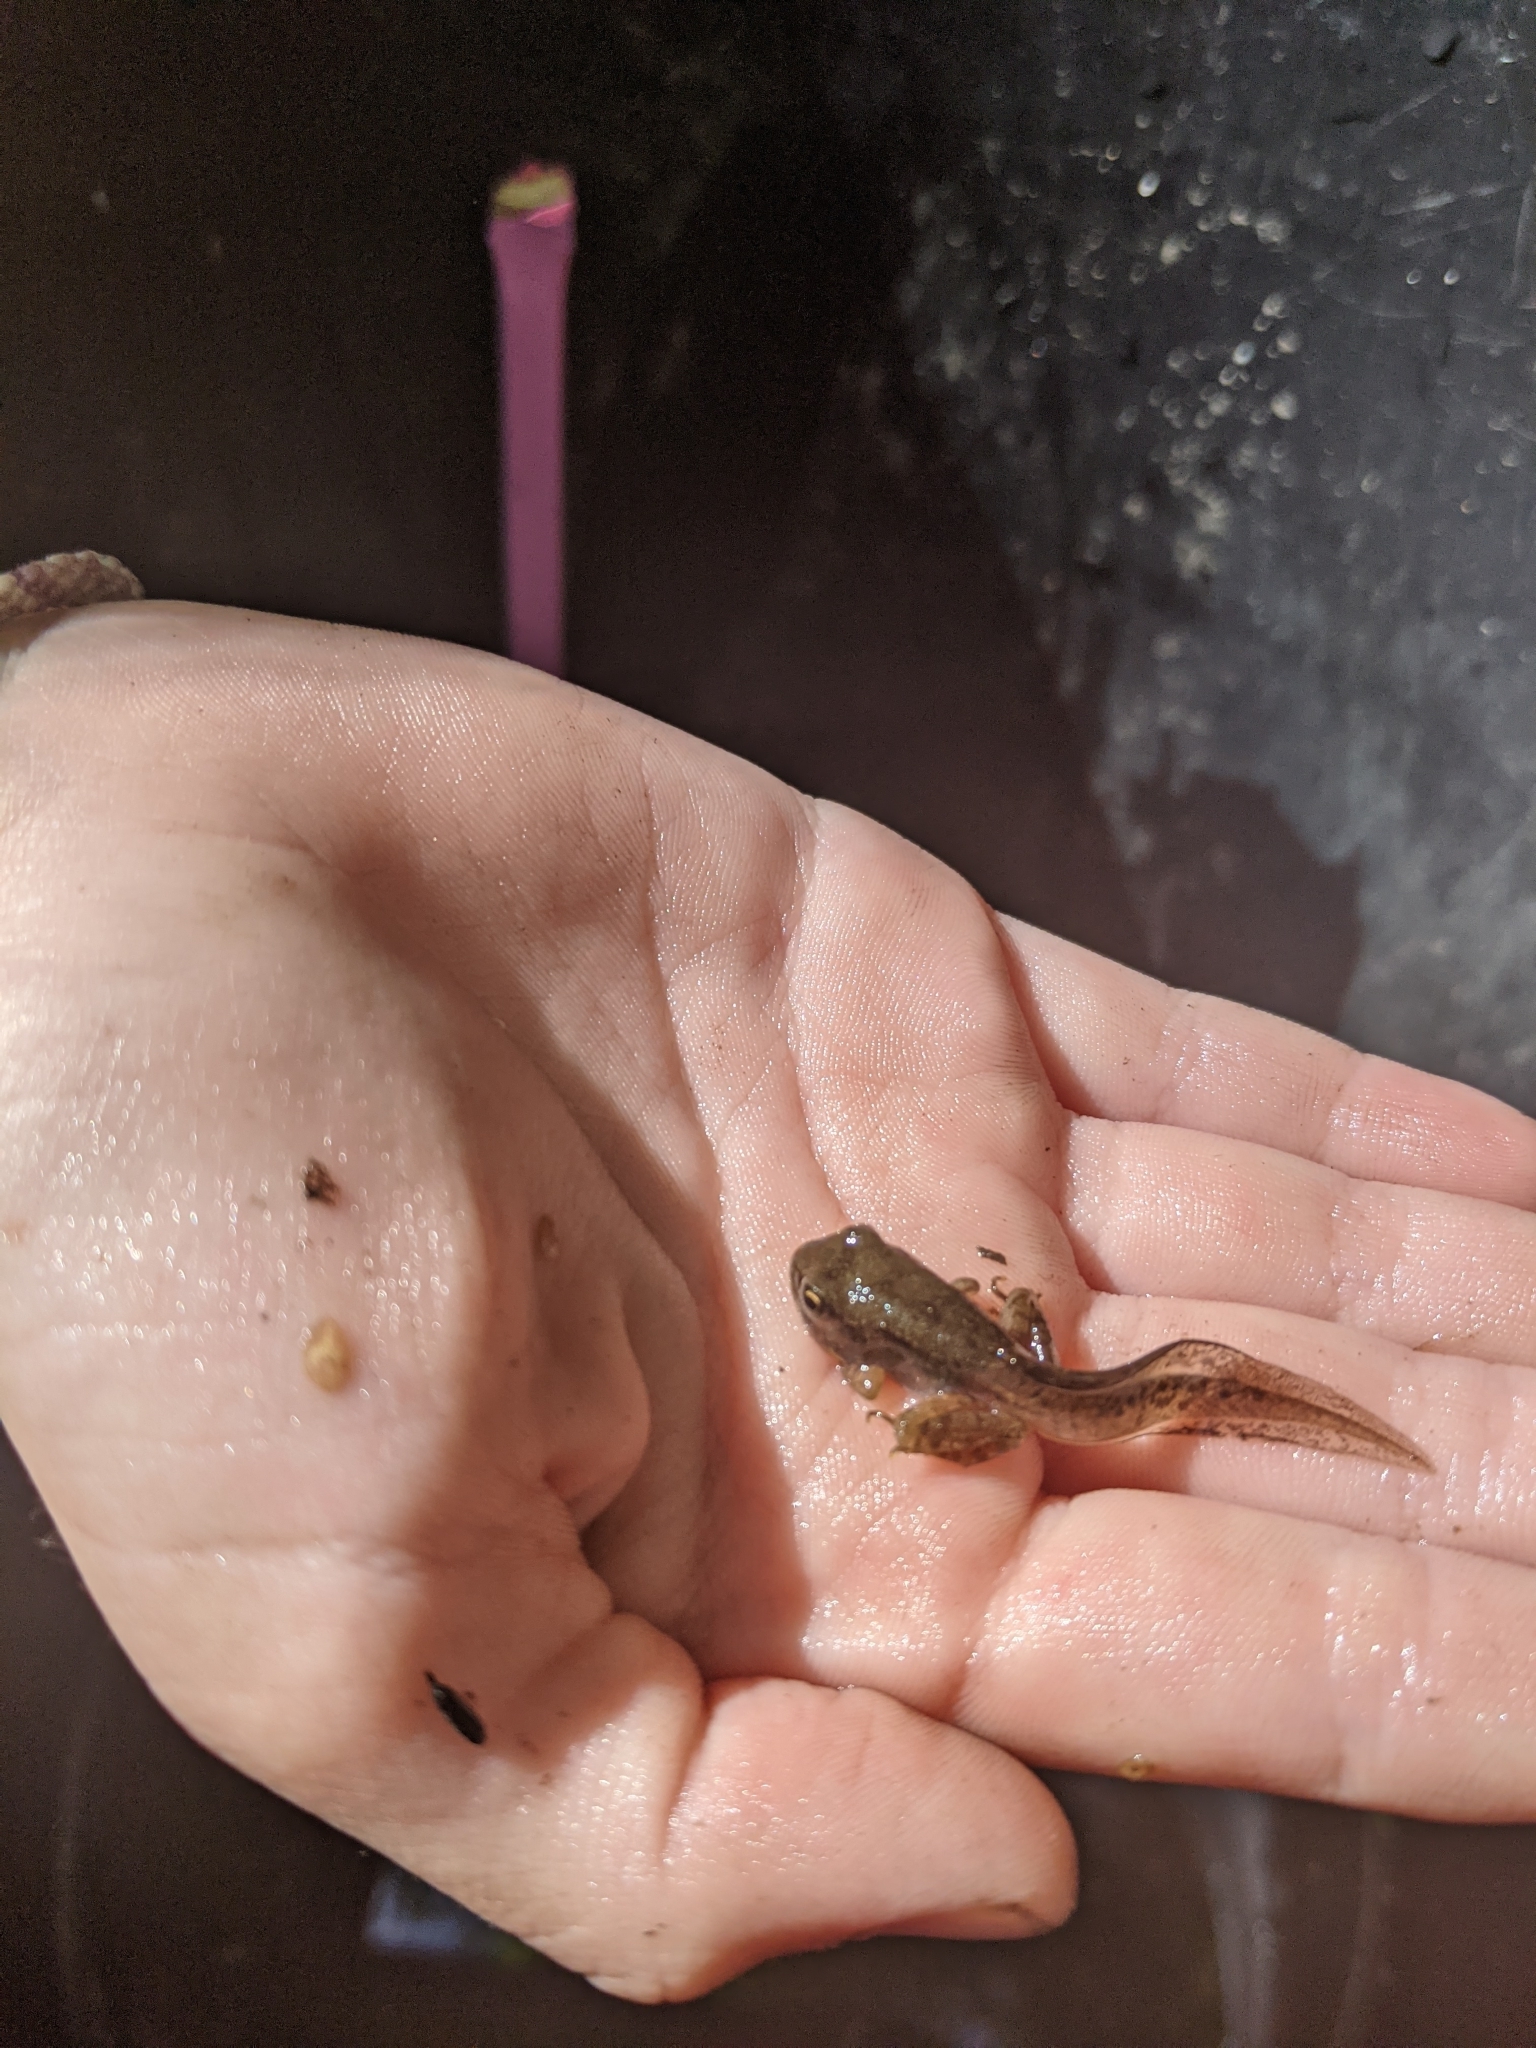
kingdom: Animalia
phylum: Chordata
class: Amphibia
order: Anura
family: Ranidae
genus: Lithobates
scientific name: Lithobates sylvaticus
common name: Wood frog
